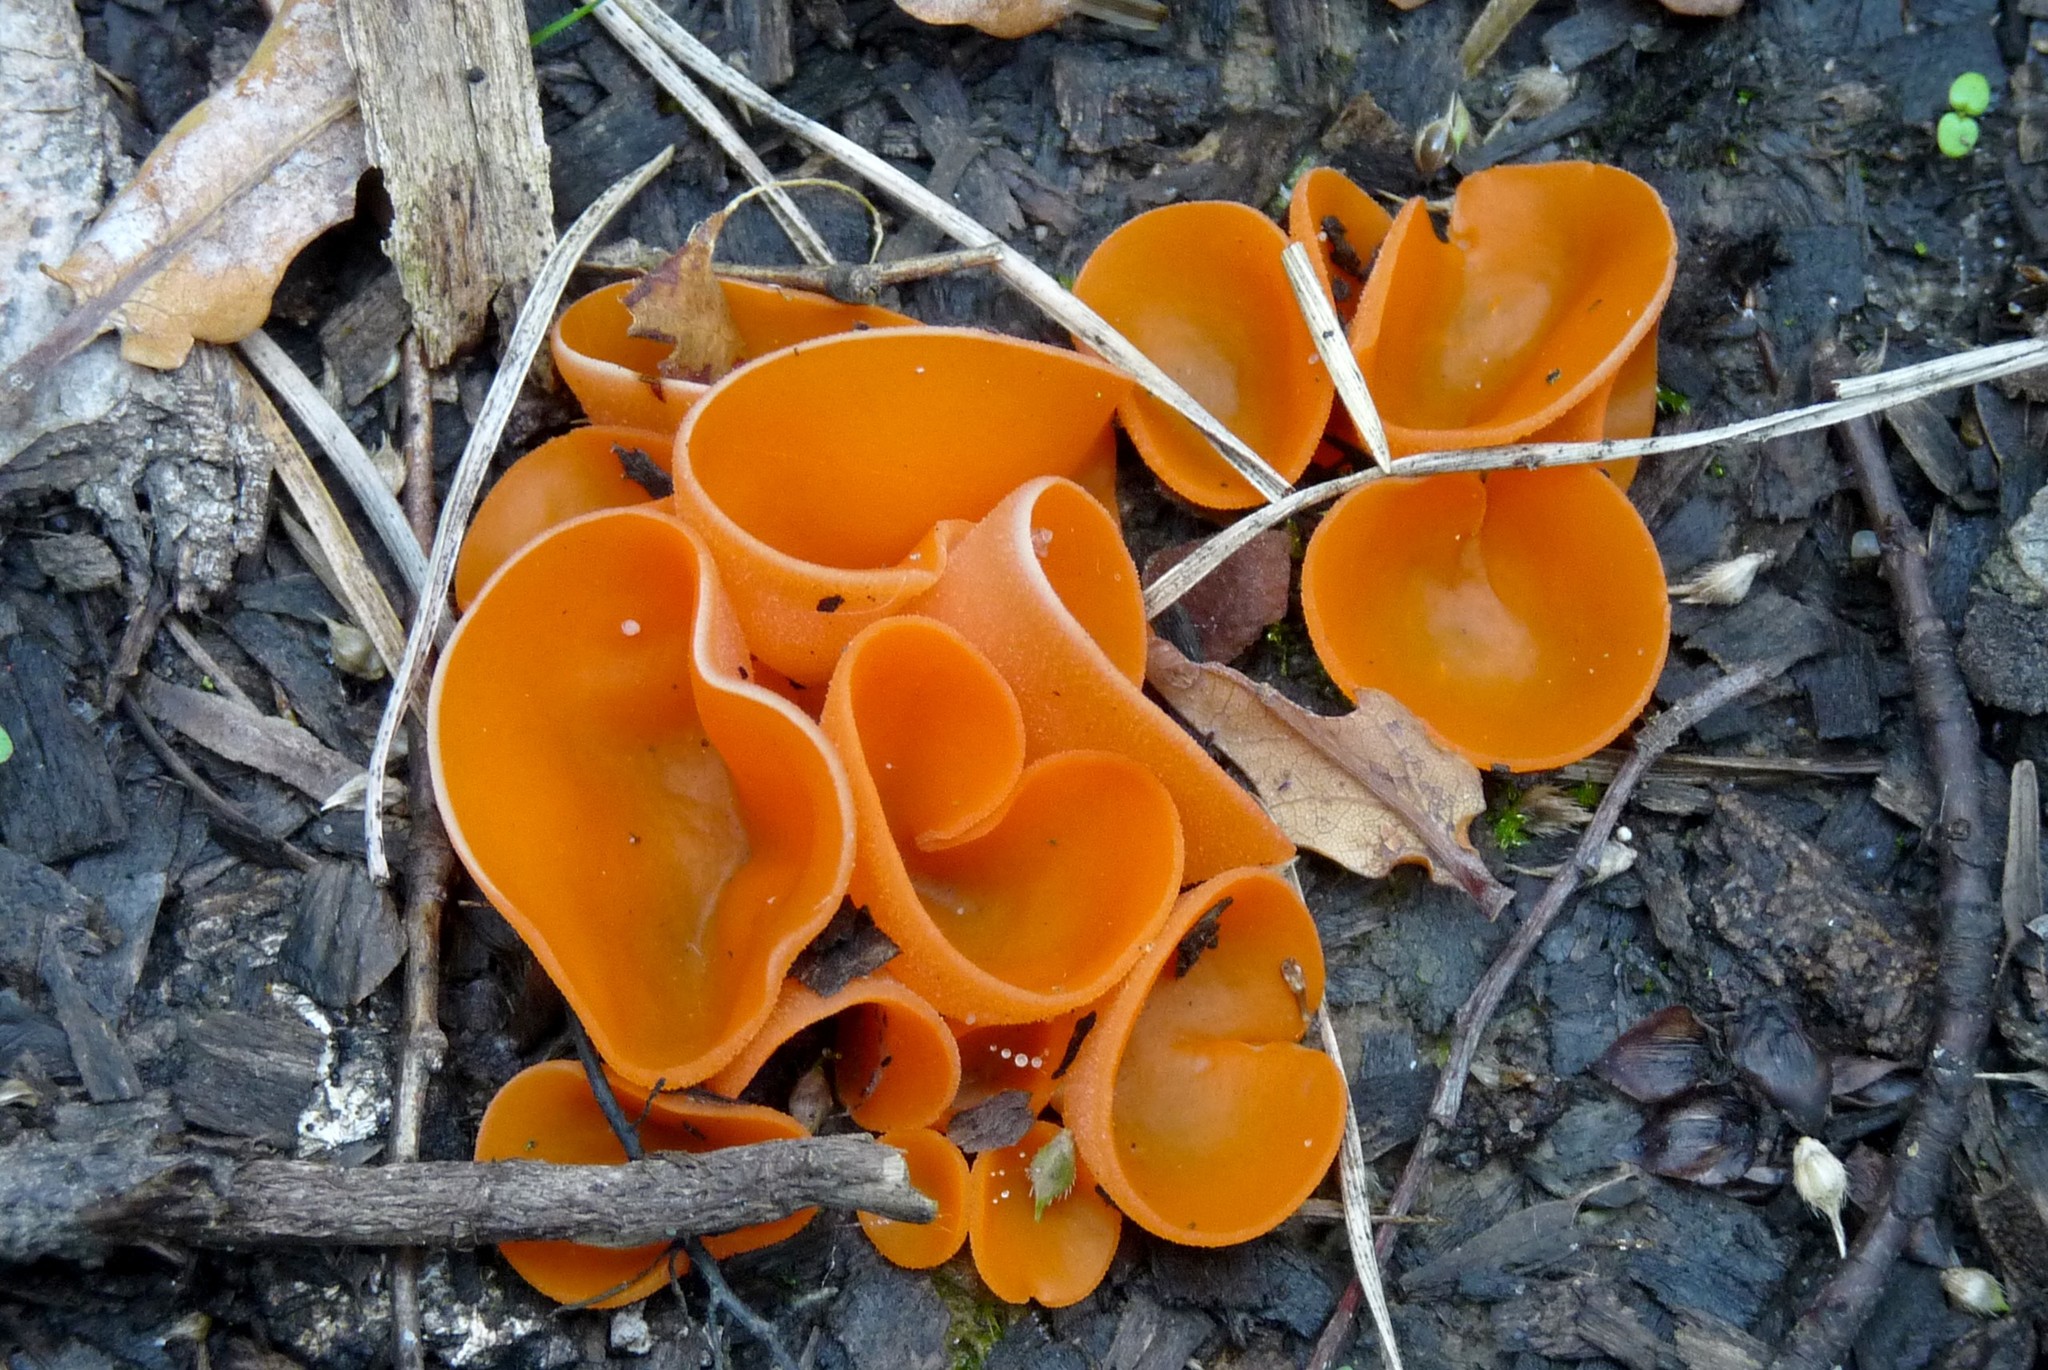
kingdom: Fungi
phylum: Ascomycota
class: Pezizomycetes
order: Pezizales
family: Pyronemataceae
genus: Aleuria
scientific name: Aleuria aurantia
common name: Orange peel fungus
